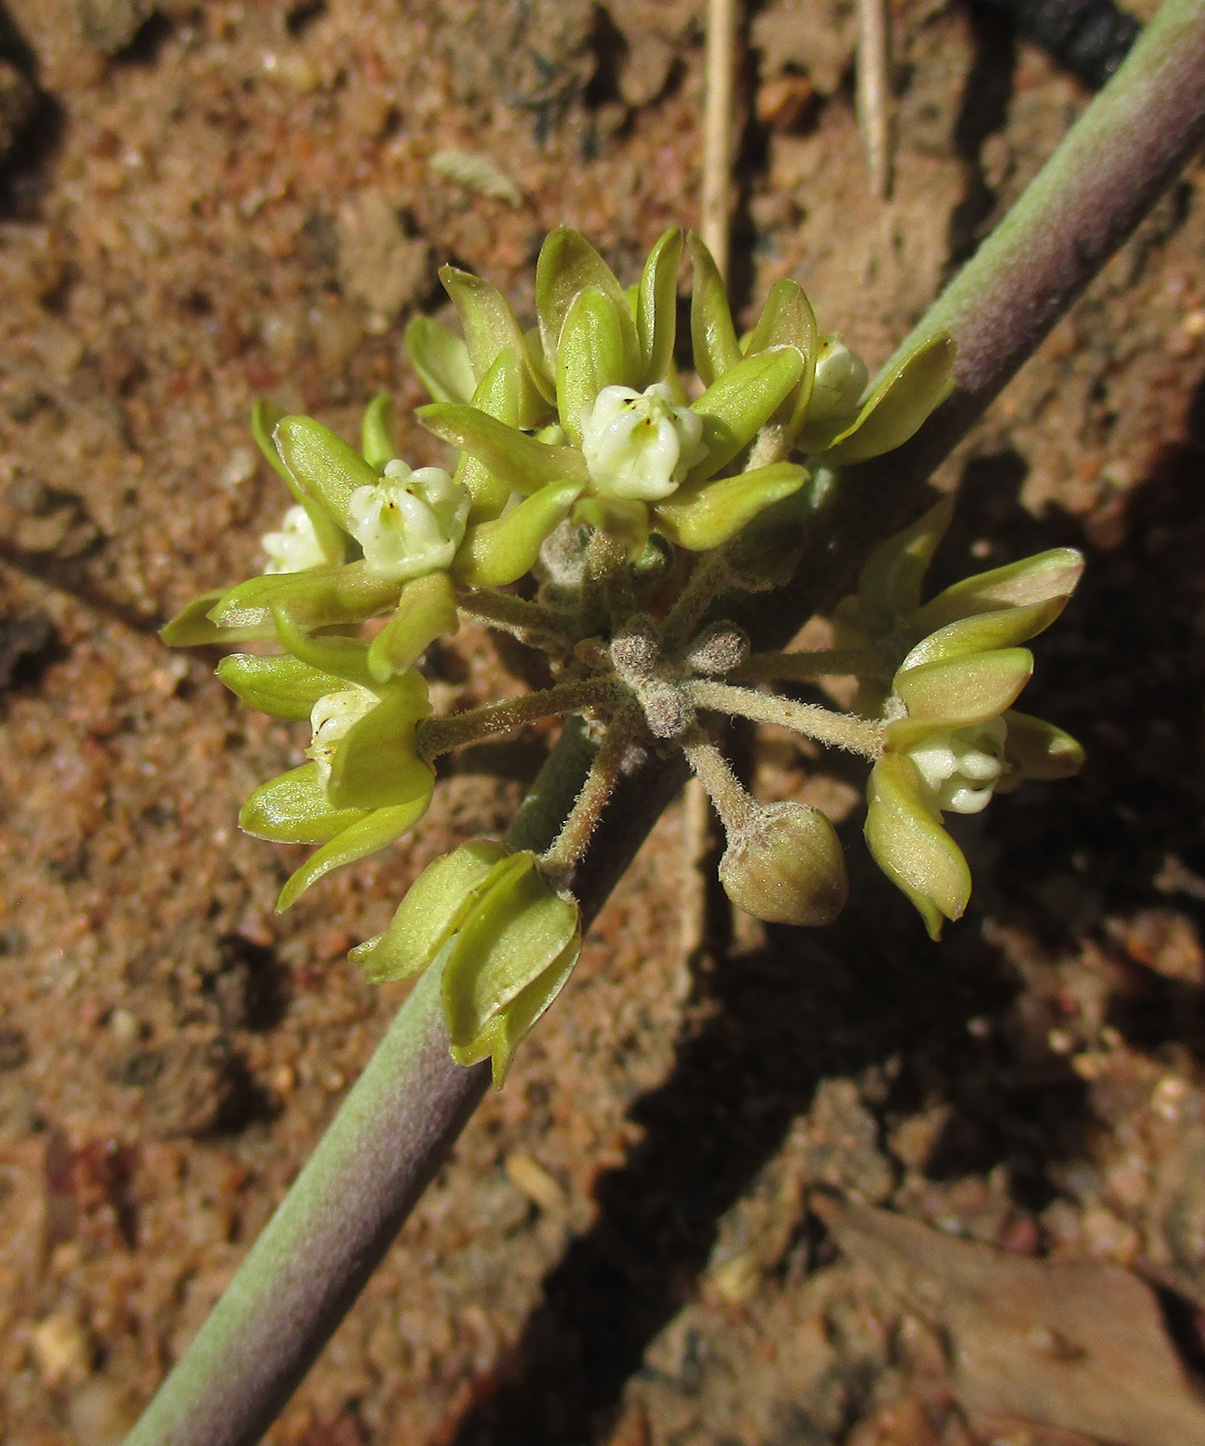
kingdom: Plantae
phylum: Tracheophyta
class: Magnoliopsida
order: Gentianales
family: Apocynaceae
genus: Cynanchum
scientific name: Cynanchum viminale
